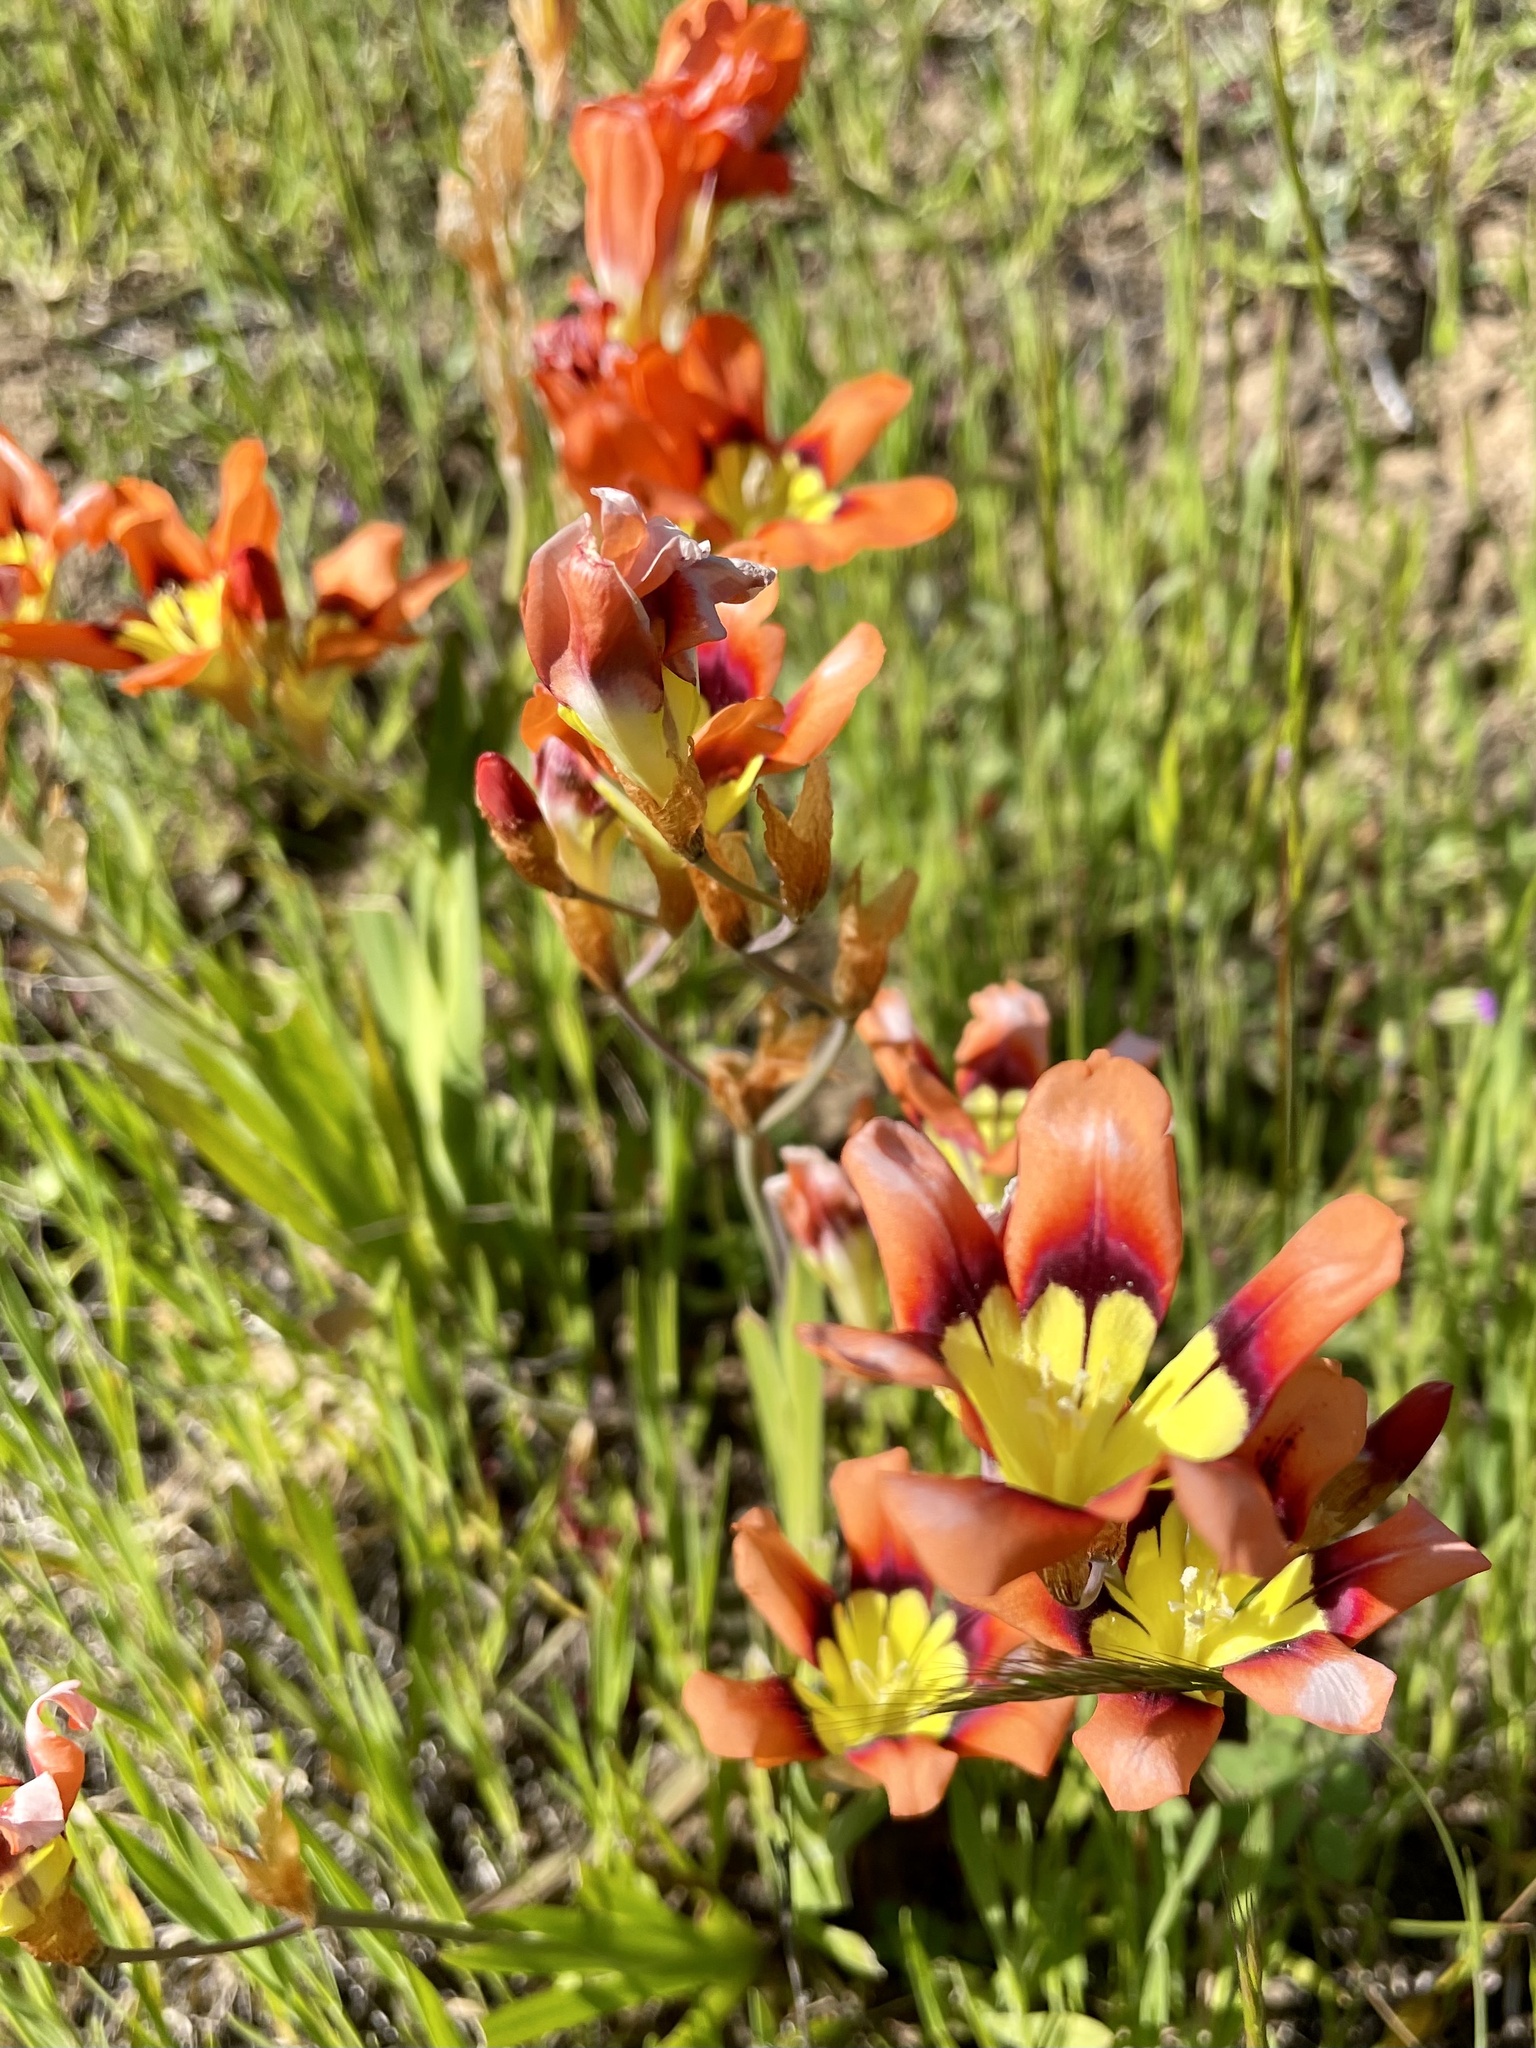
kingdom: Plantae
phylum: Tracheophyta
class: Liliopsida
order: Asparagales
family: Iridaceae
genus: Sparaxis
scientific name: Sparaxis tricolor
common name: Wandflower
